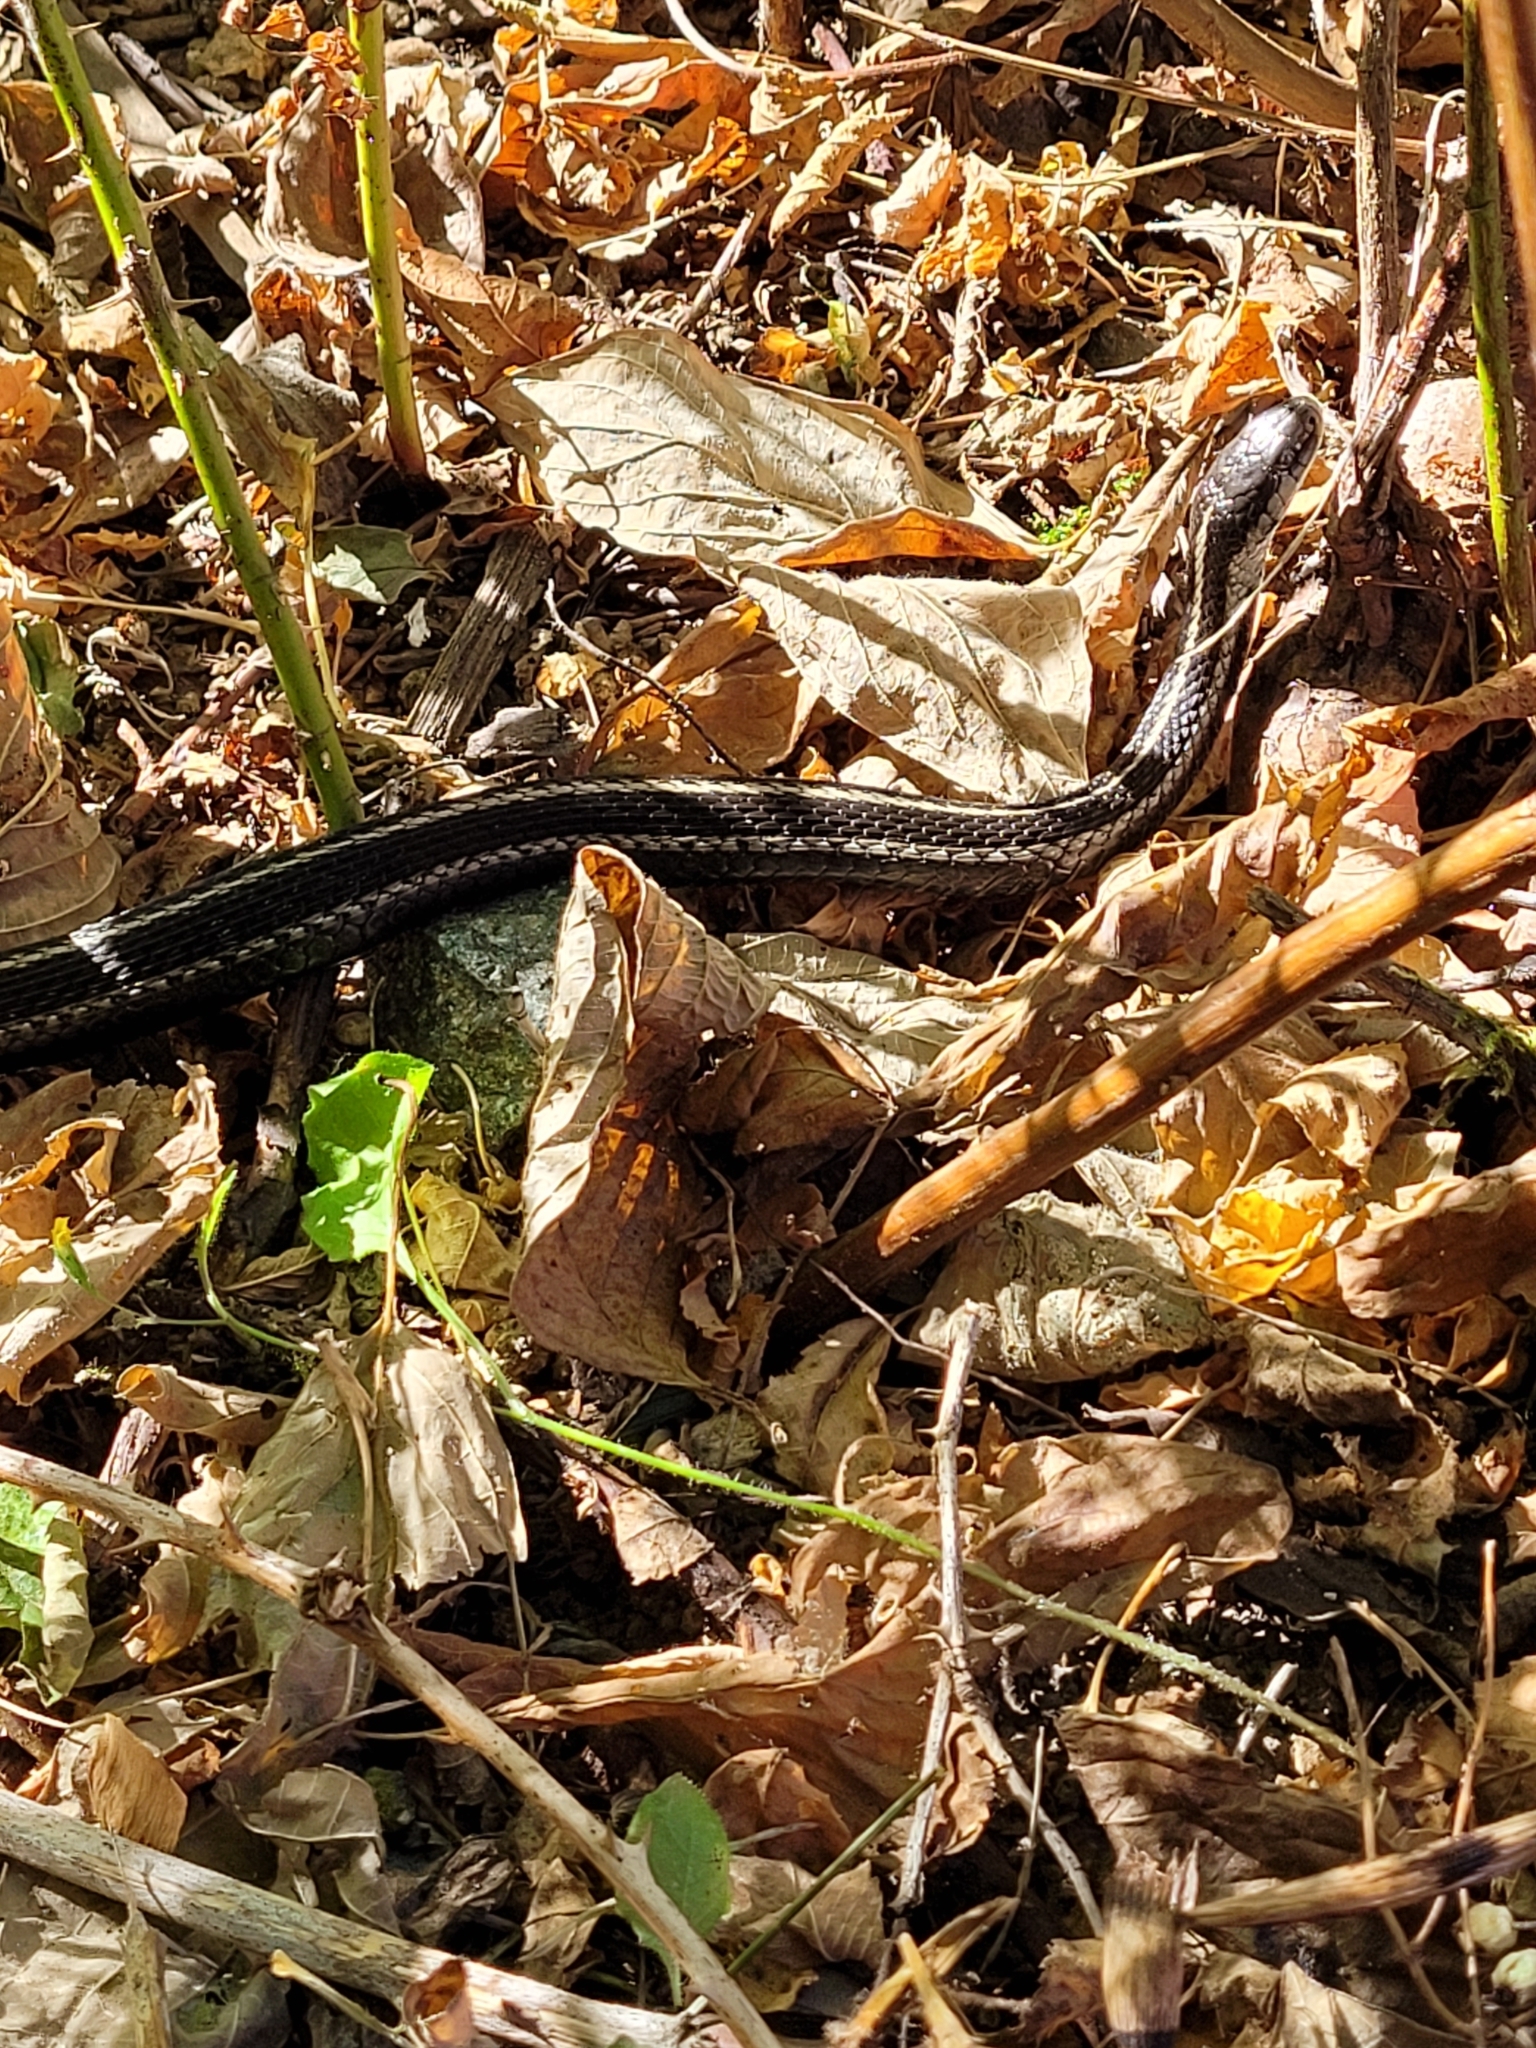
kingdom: Animalia
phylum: Chordata
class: Squamata
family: Colubridae
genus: Thamnophis
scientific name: Thamnophis ordinoides
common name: Northwestern garter snake
